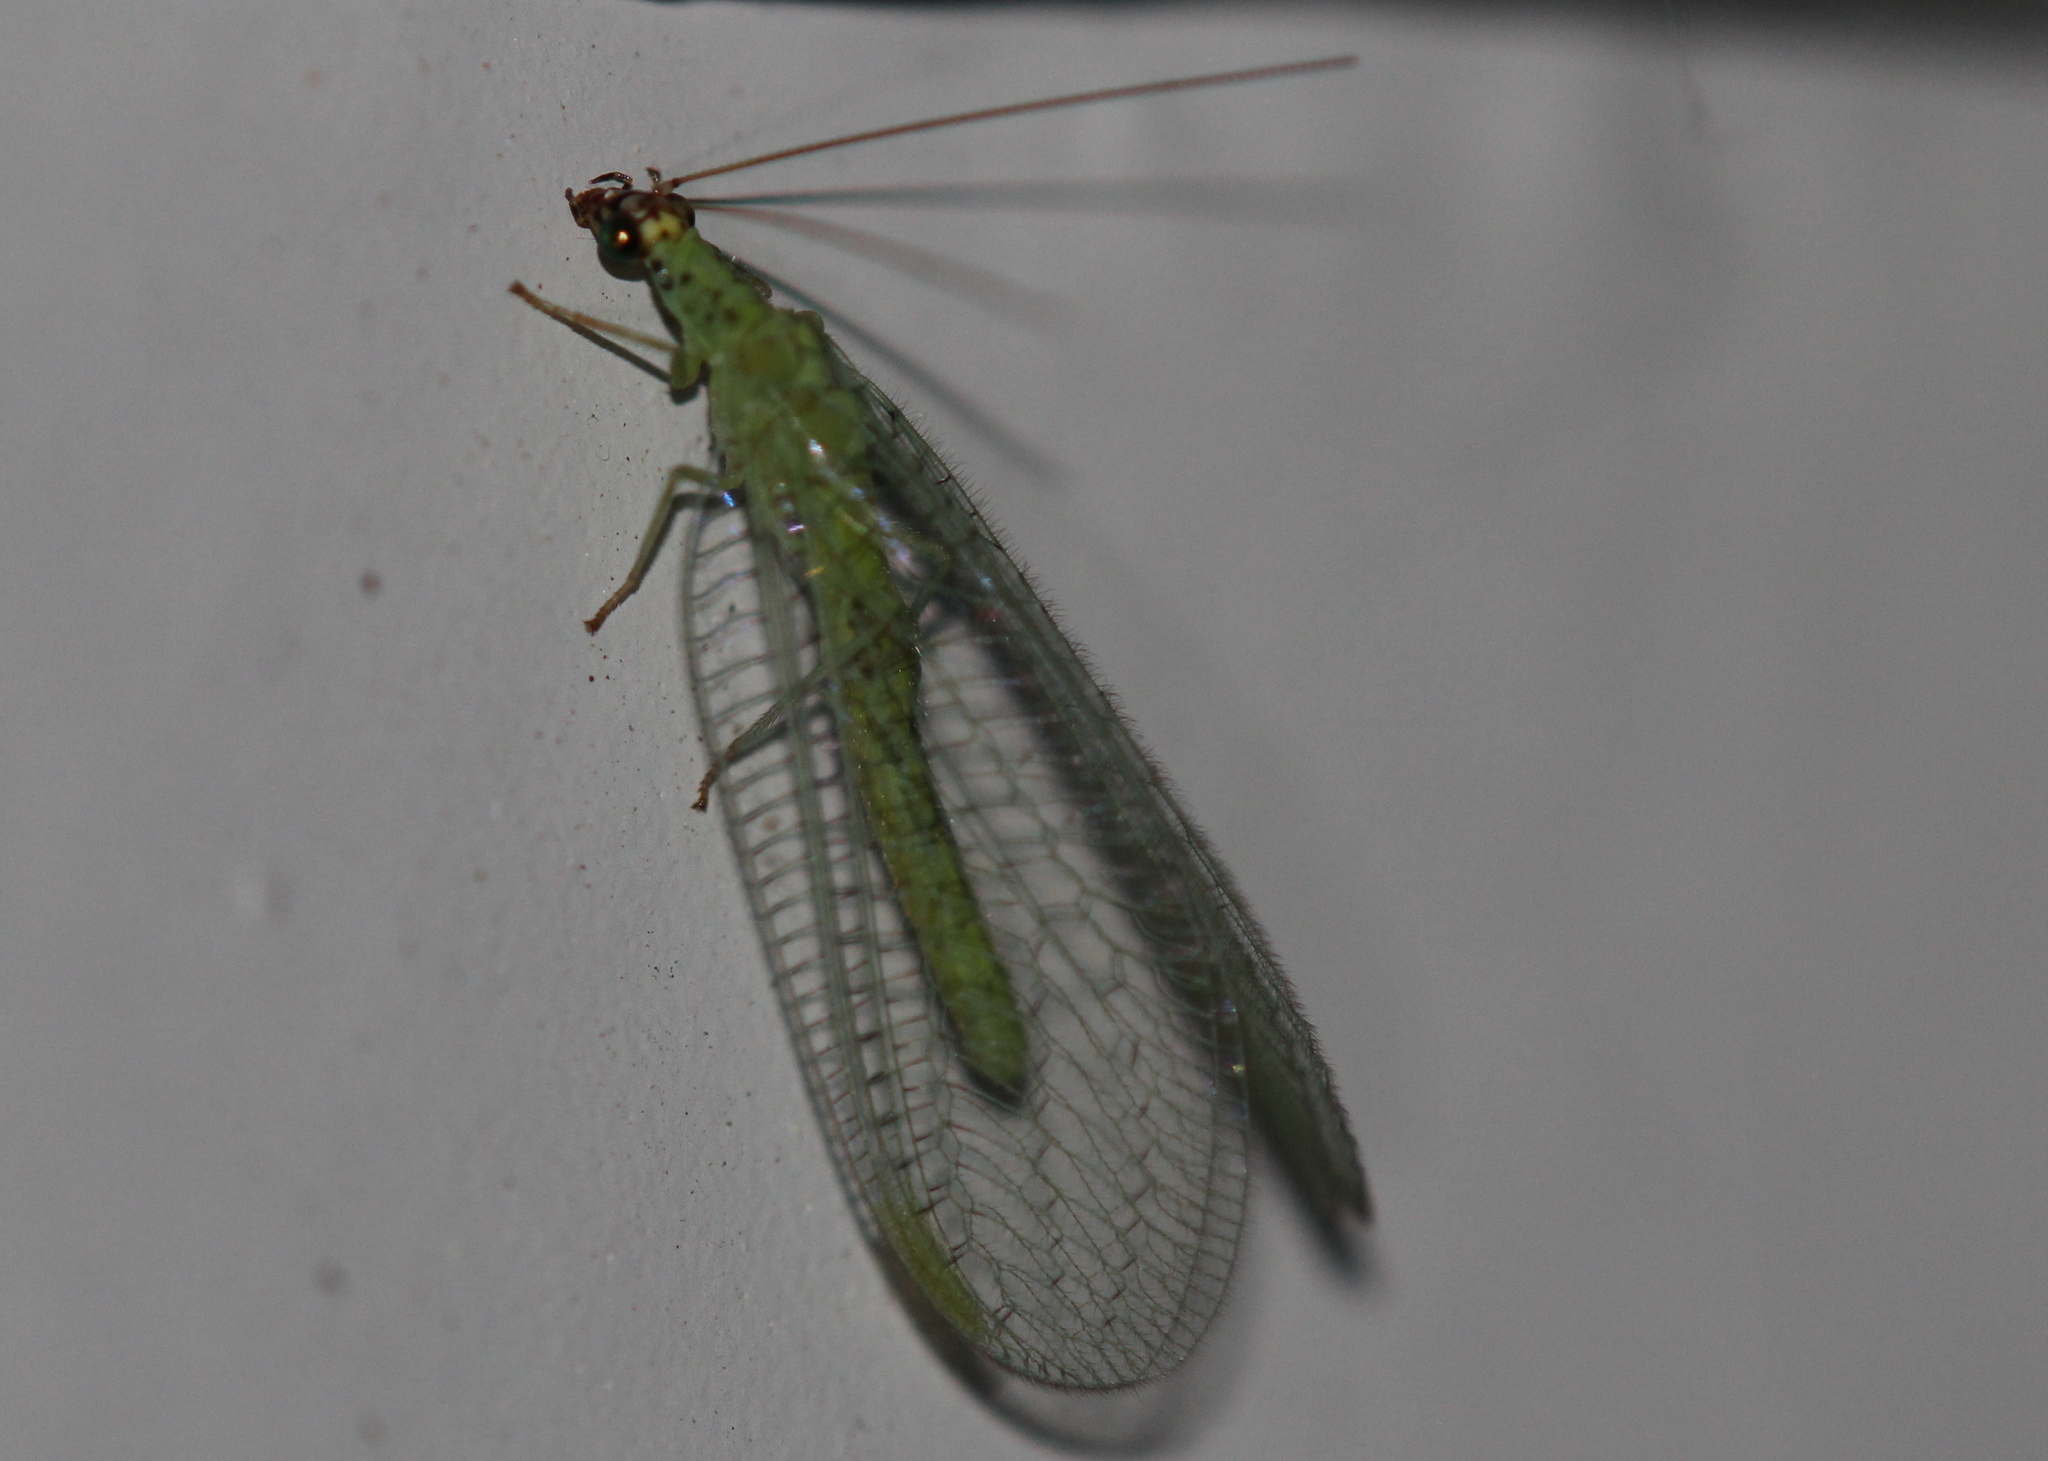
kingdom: Animalia
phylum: Arthropoda
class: Insecta
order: Neuroptera
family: Chrysopidae
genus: Chrysopa
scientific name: Chrysopa oculata
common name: Golden-eyed lacewing
